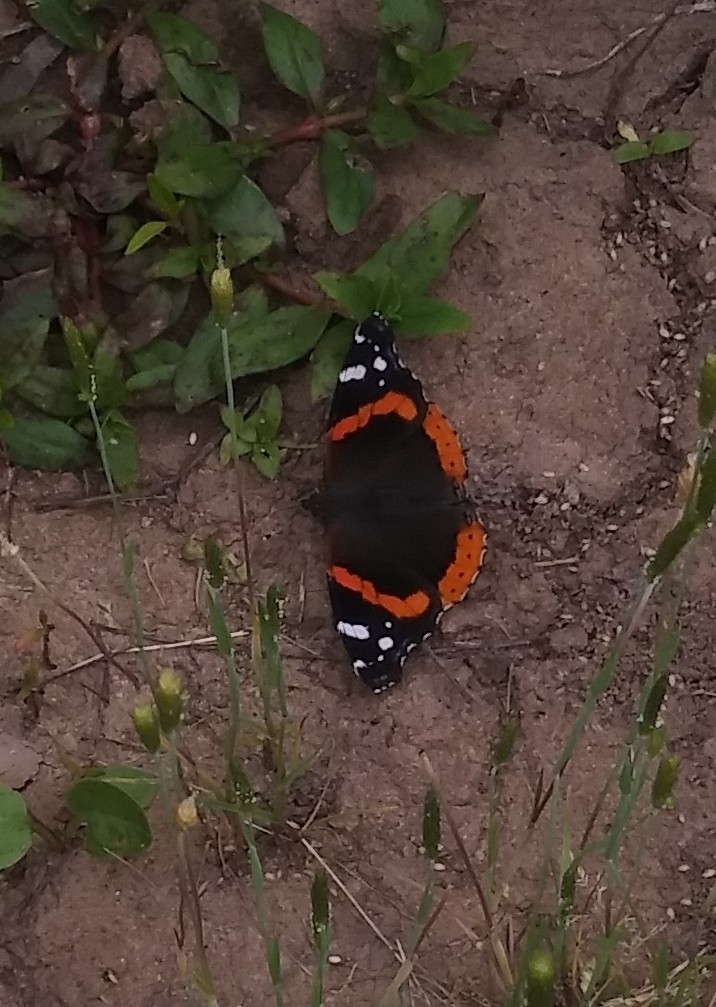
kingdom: Animalia
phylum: Arthropoda
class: Insecta
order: Lepidoptera
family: Nymphalidae
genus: Vanessa
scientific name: Vanessa atalanta
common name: Red admiral
